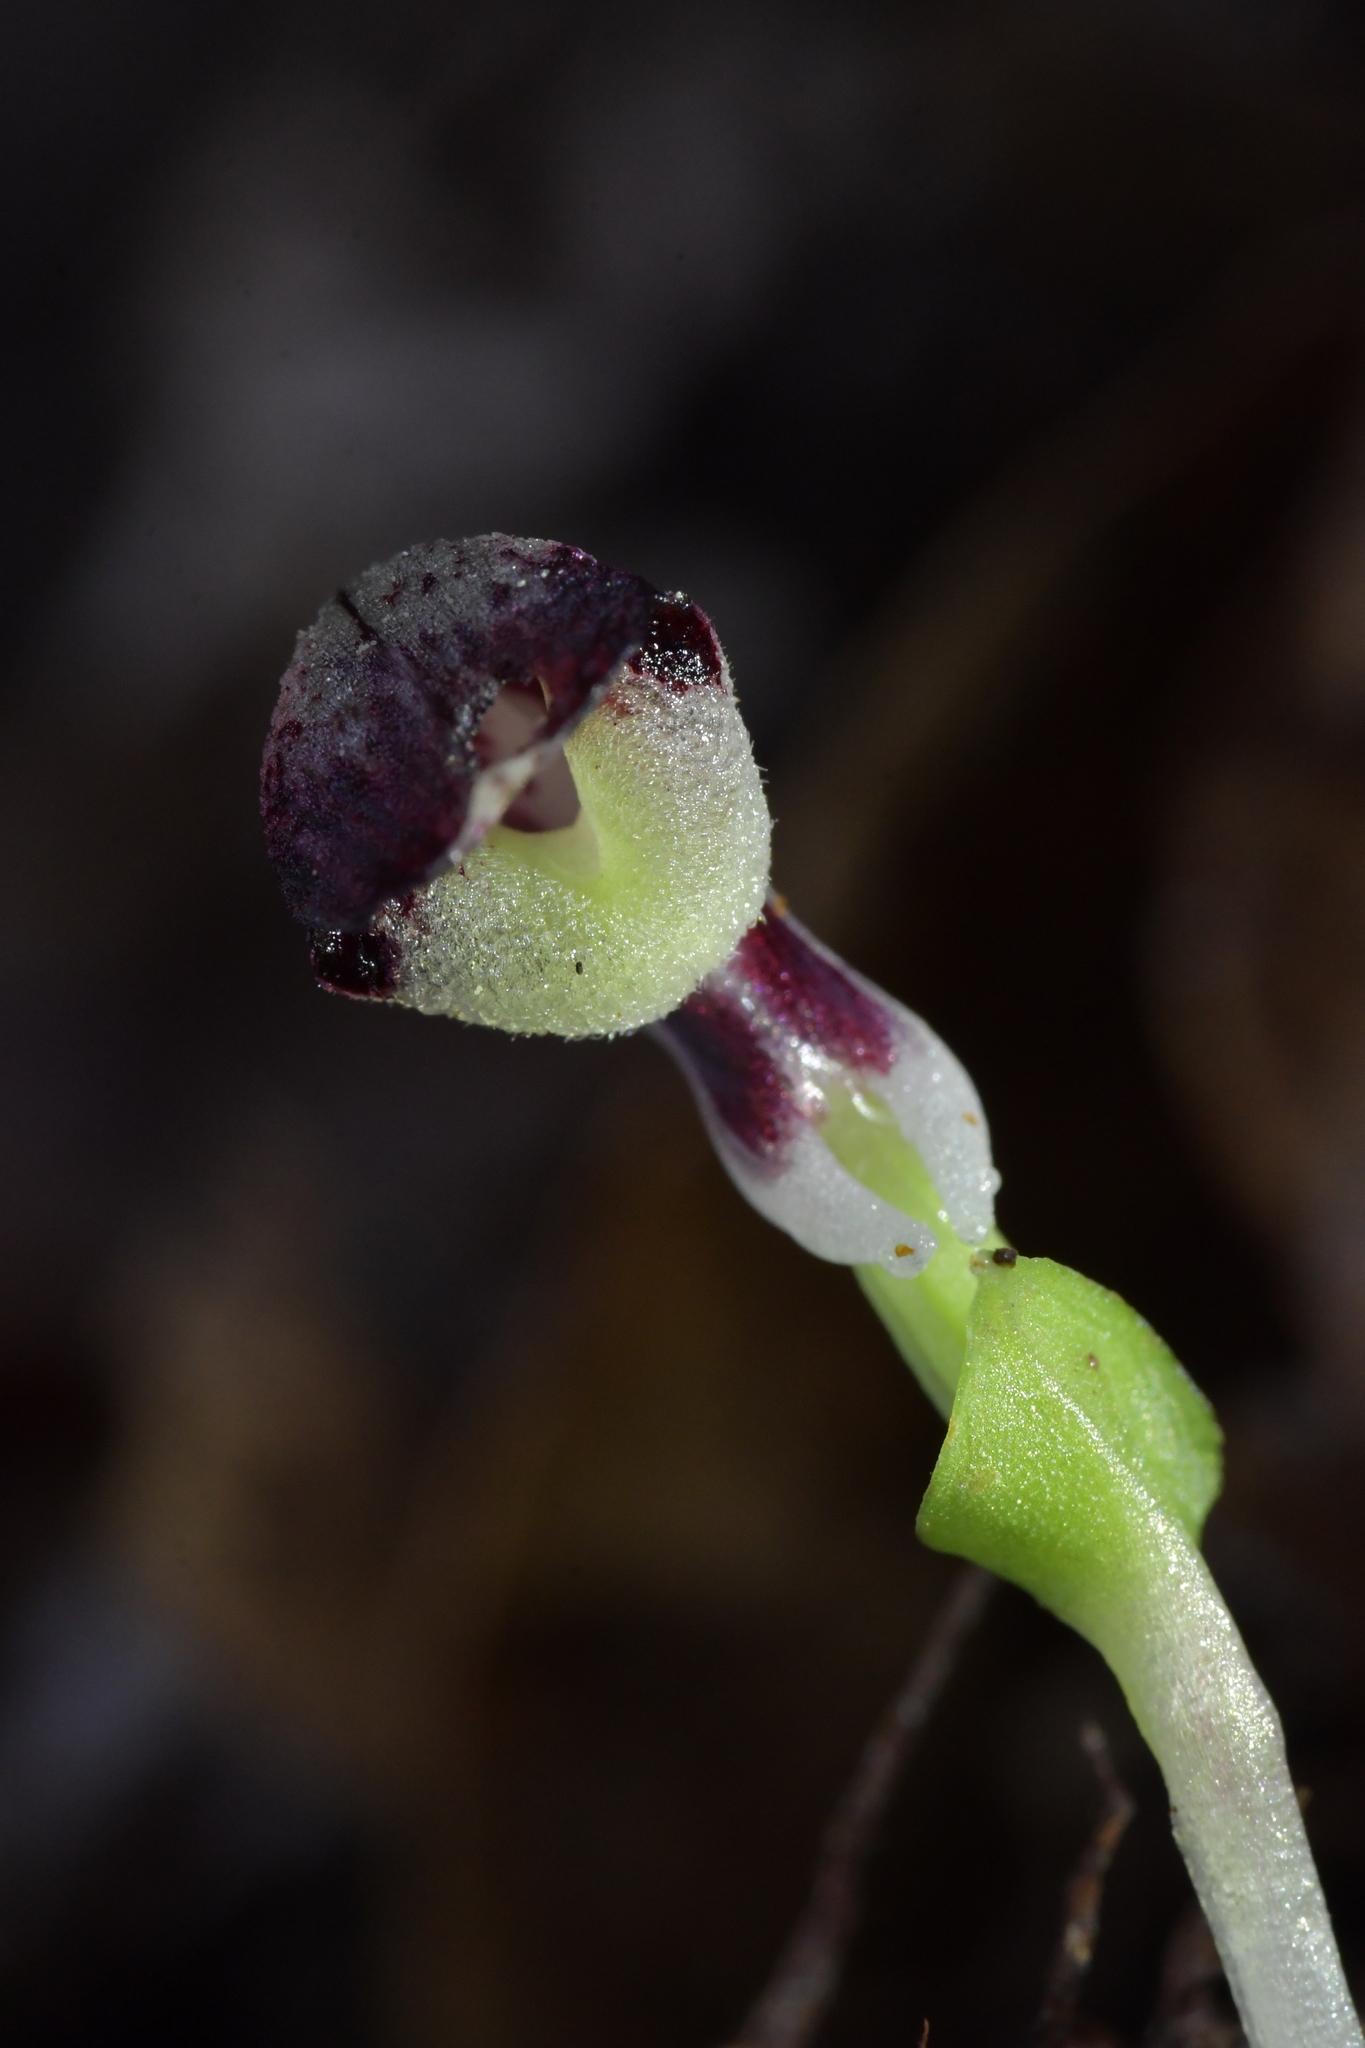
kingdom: Plantae
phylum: Tracheophyta
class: Liliopsida
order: Asparagales
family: Orchidaceae
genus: Corybas
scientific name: Corybas cheesemanii
